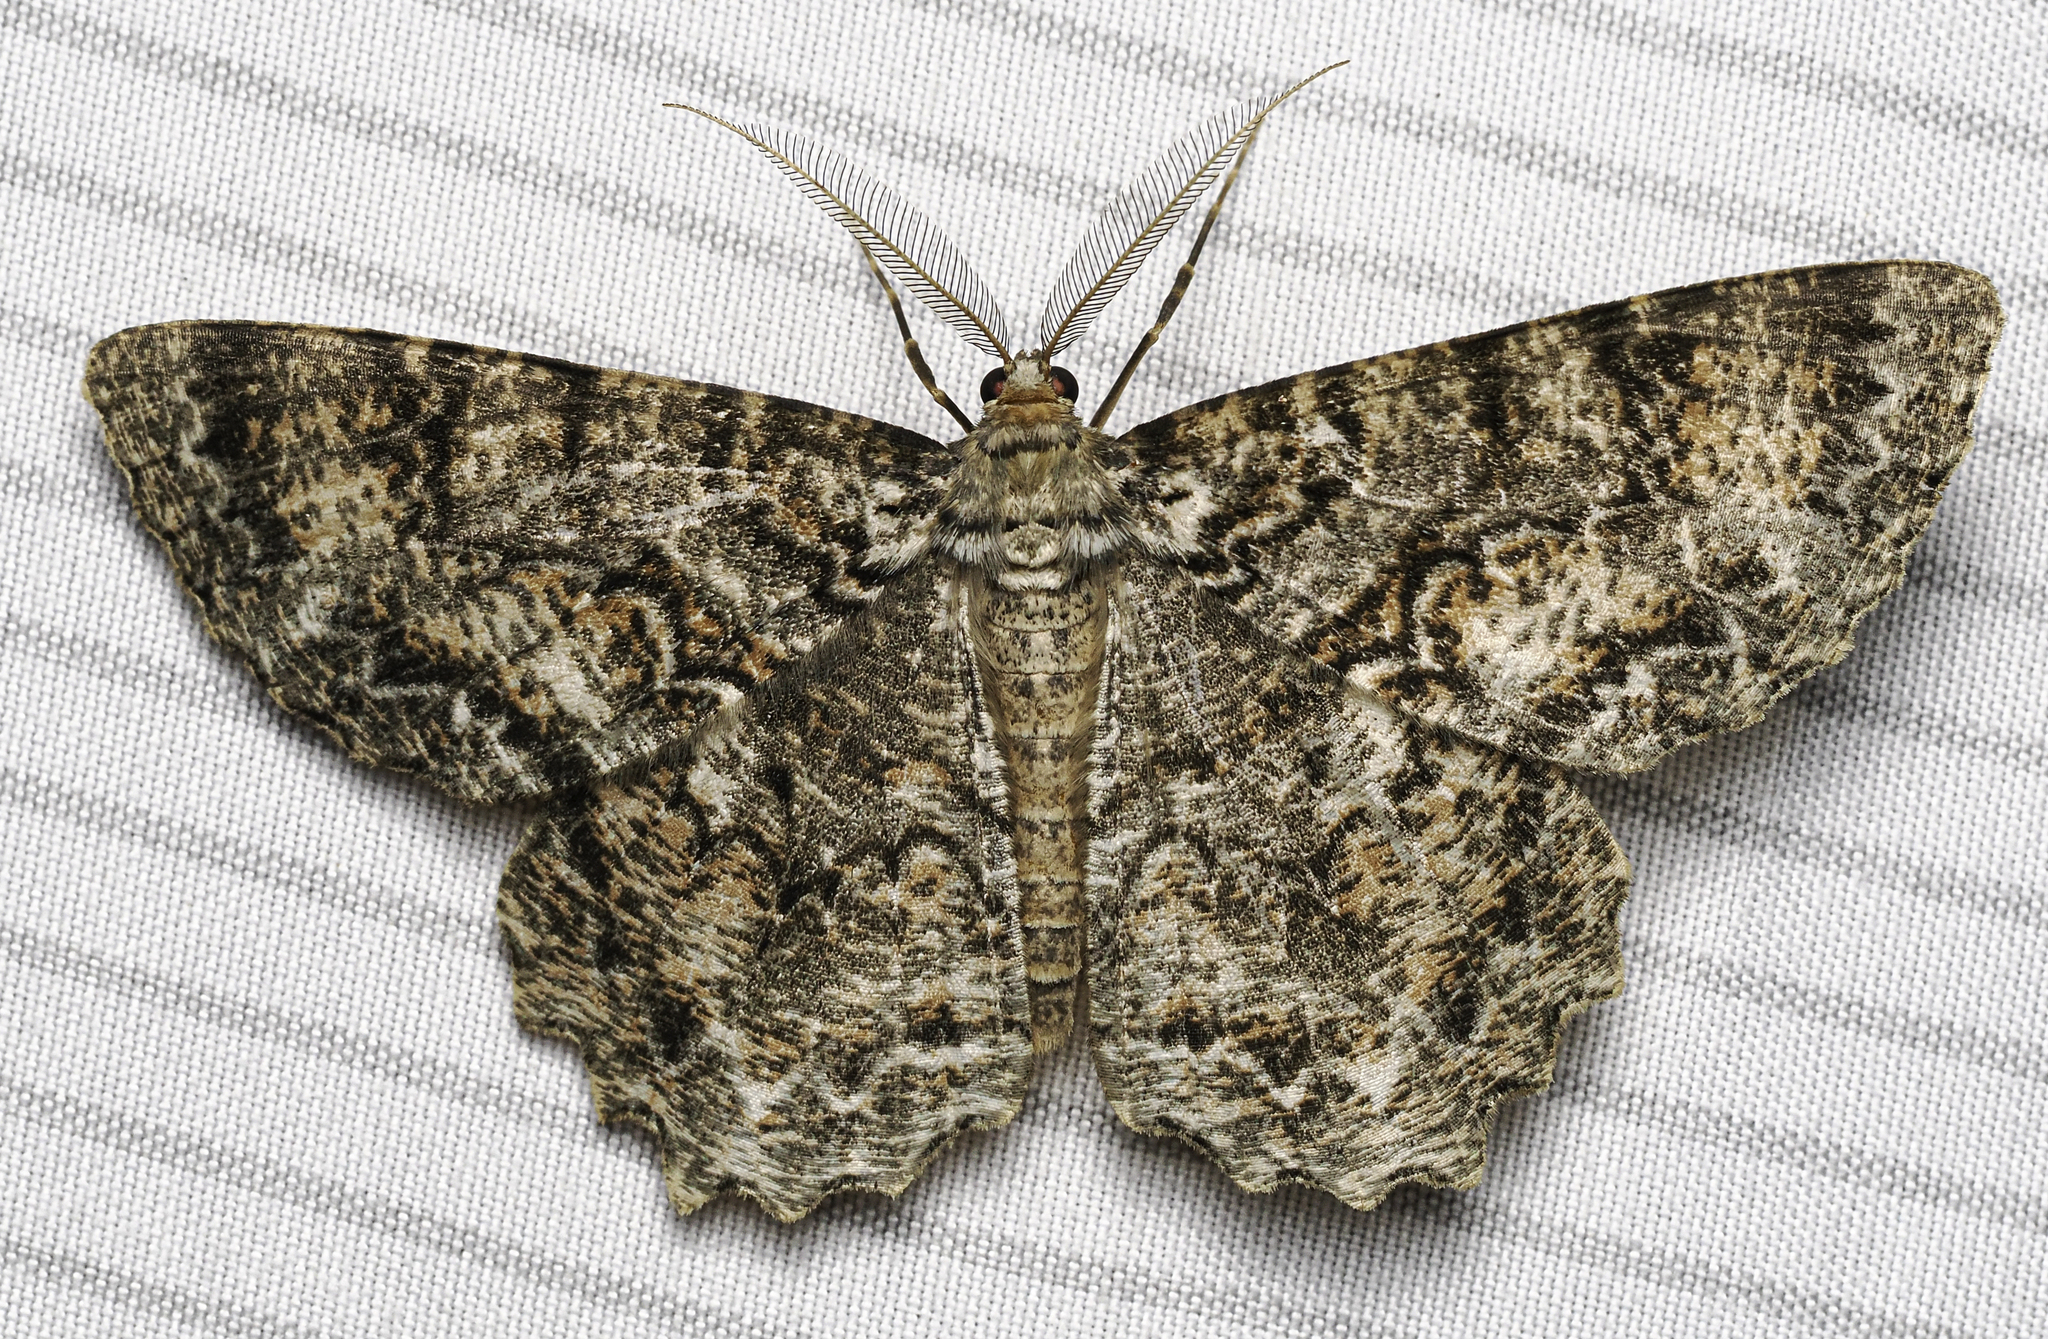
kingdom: Animalia
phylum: Arthropoda
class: Insecta
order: Lepidoptera
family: Geometridae
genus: Epimecis
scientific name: Epimecis hortaria
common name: Tulip-tree beauty
